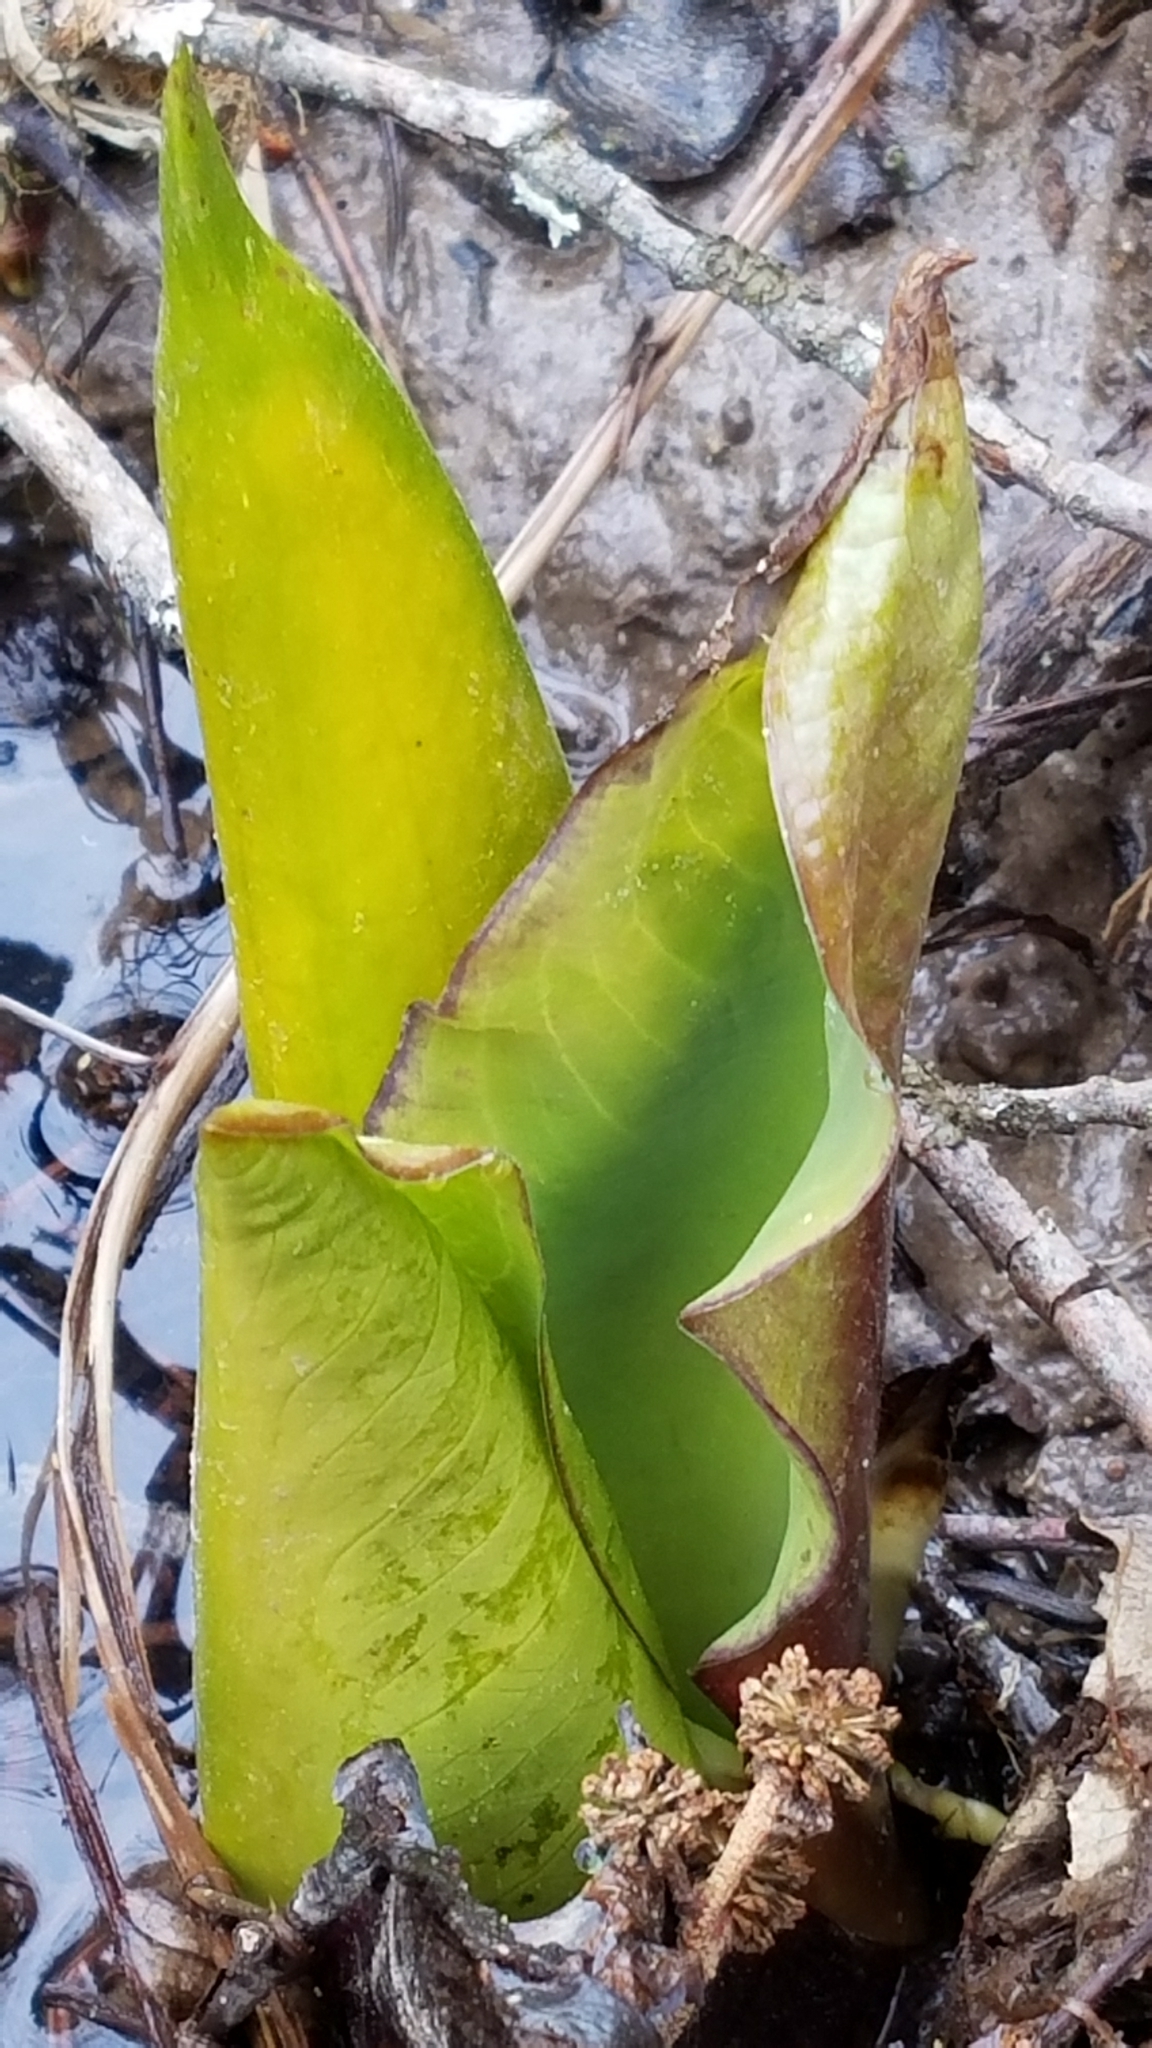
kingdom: Plantae
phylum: Tracheophyta
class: Liliopsida
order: Alismatales
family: Araceae
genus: Lysichiton
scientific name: Lysichiton americanus
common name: American skunk cabbage
